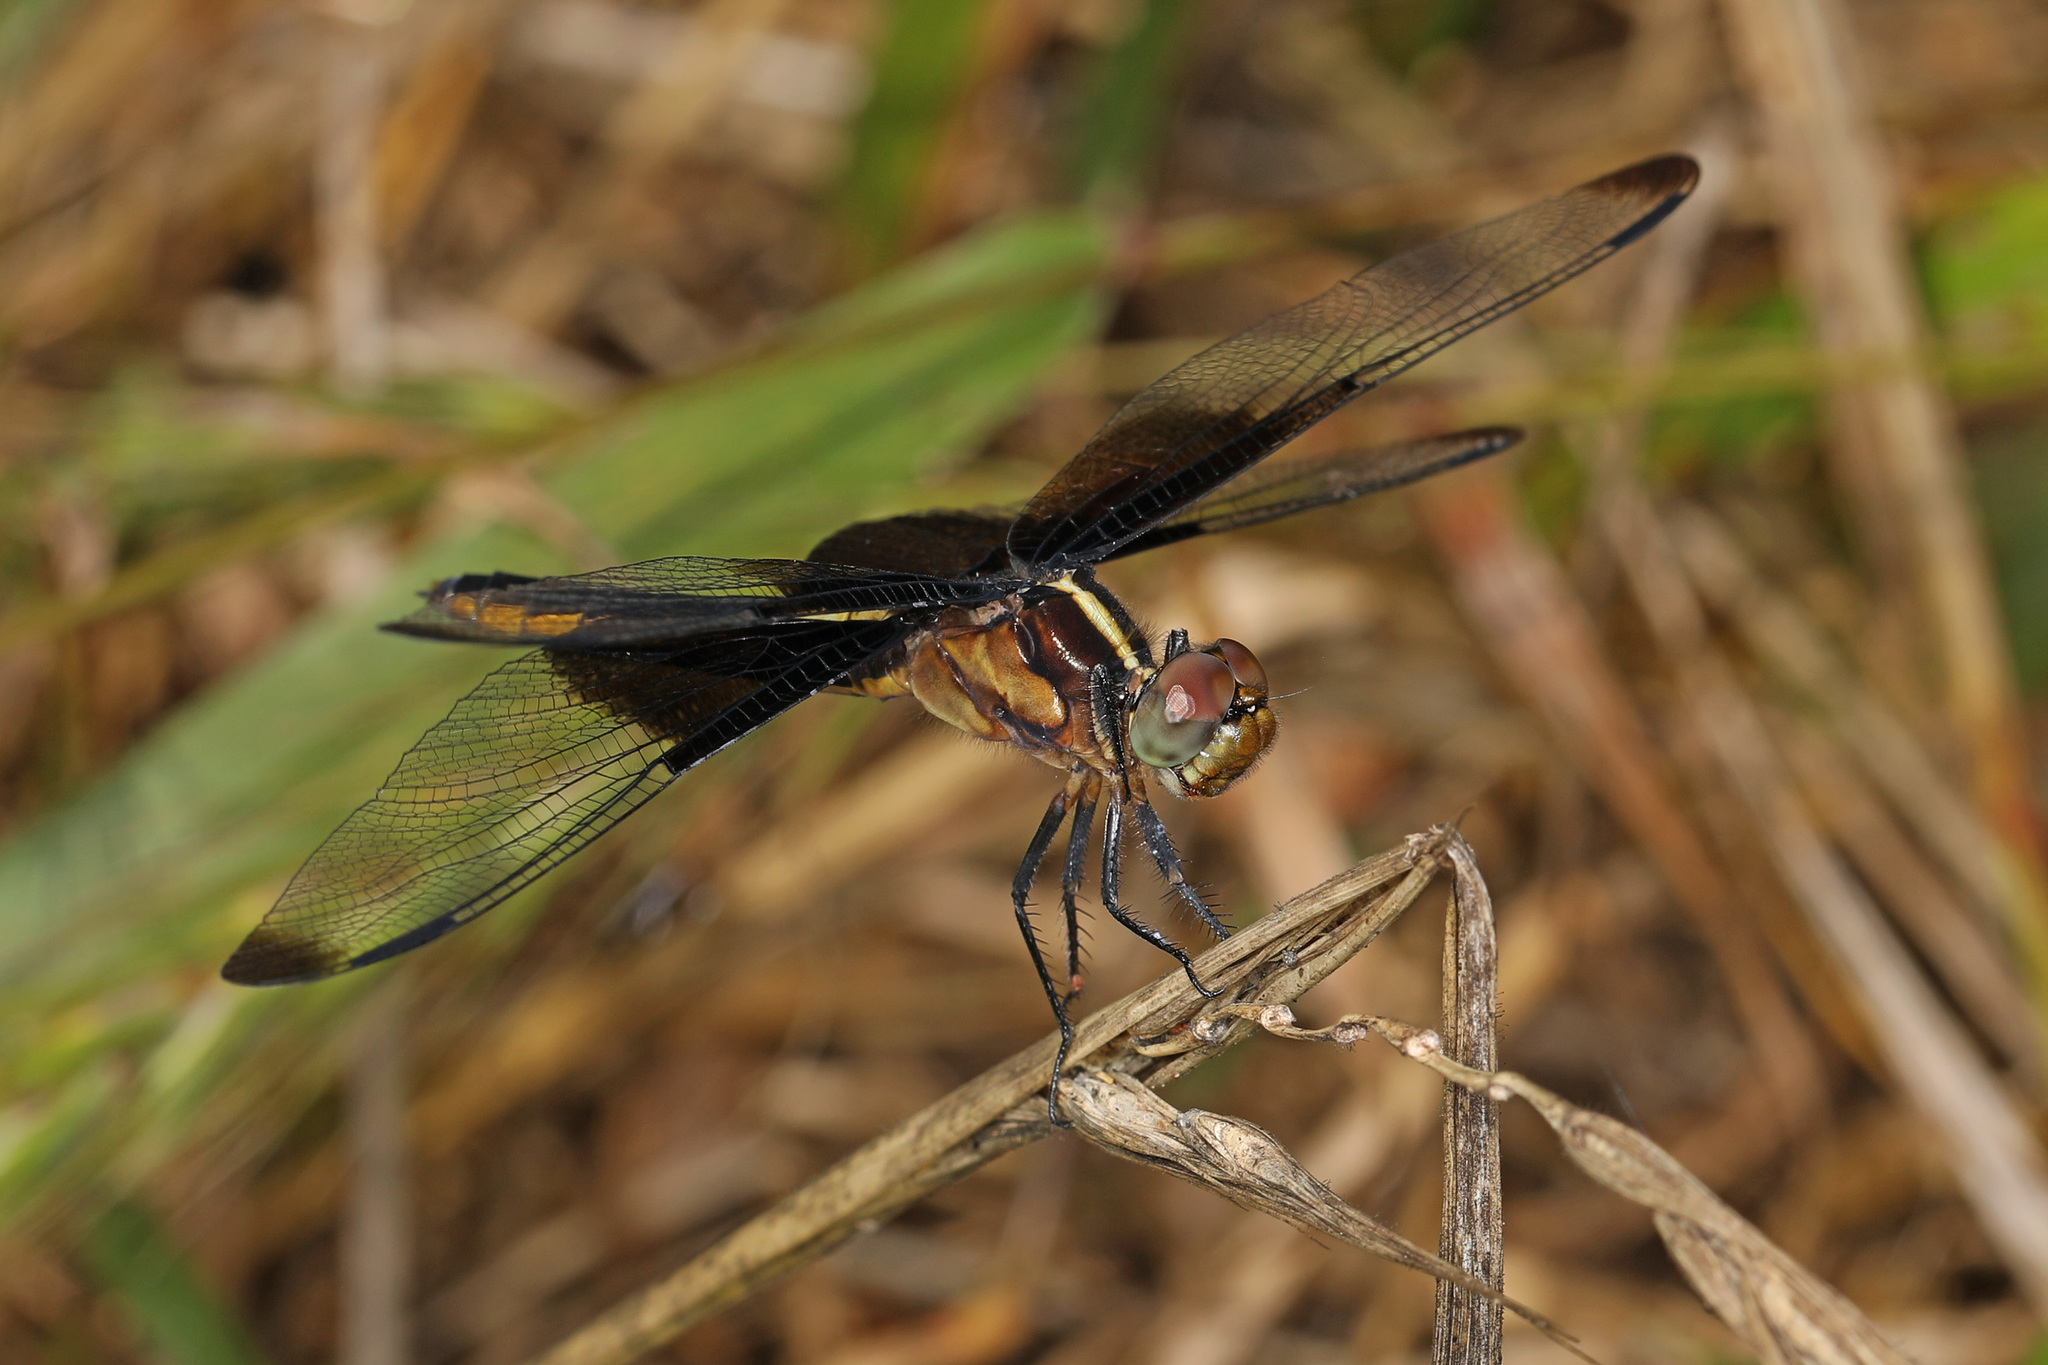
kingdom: Animalia
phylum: Arthropoda
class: Insecta
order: Odonata
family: Libellulidae
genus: Libellula
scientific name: Libellula luctuosa
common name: Widow skimmer
